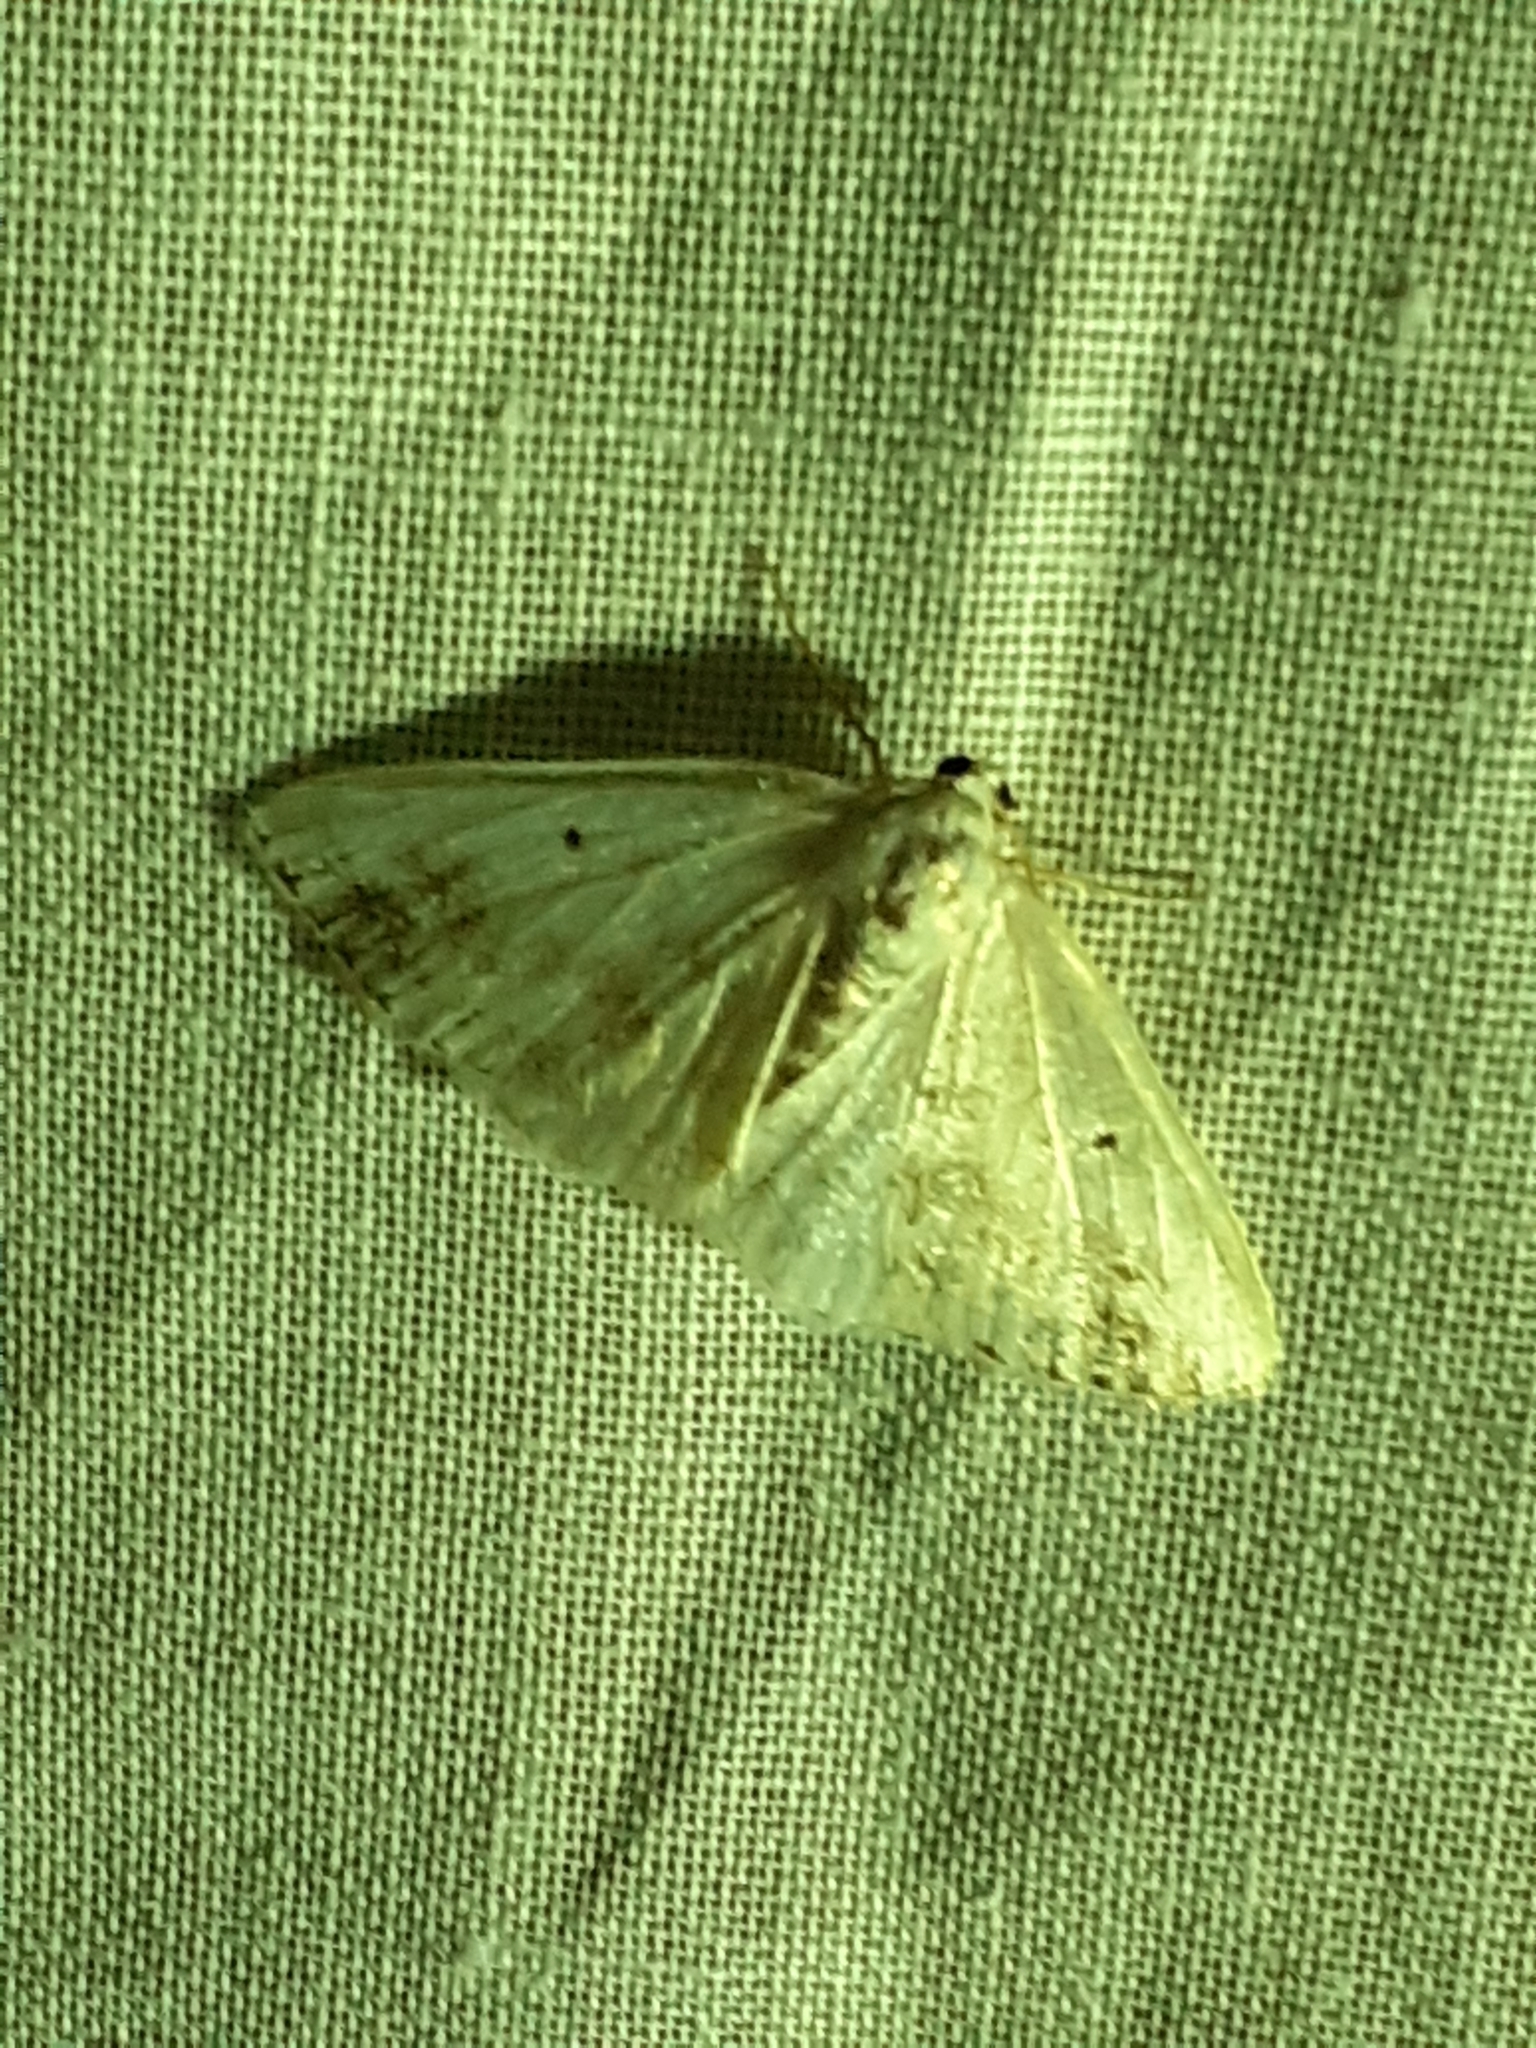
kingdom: Animalia
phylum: Arthropoda
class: Insecta
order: Lepidoptera
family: Geometridae
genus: Lomographa
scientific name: Lomographa temerata
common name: Clouded silver
